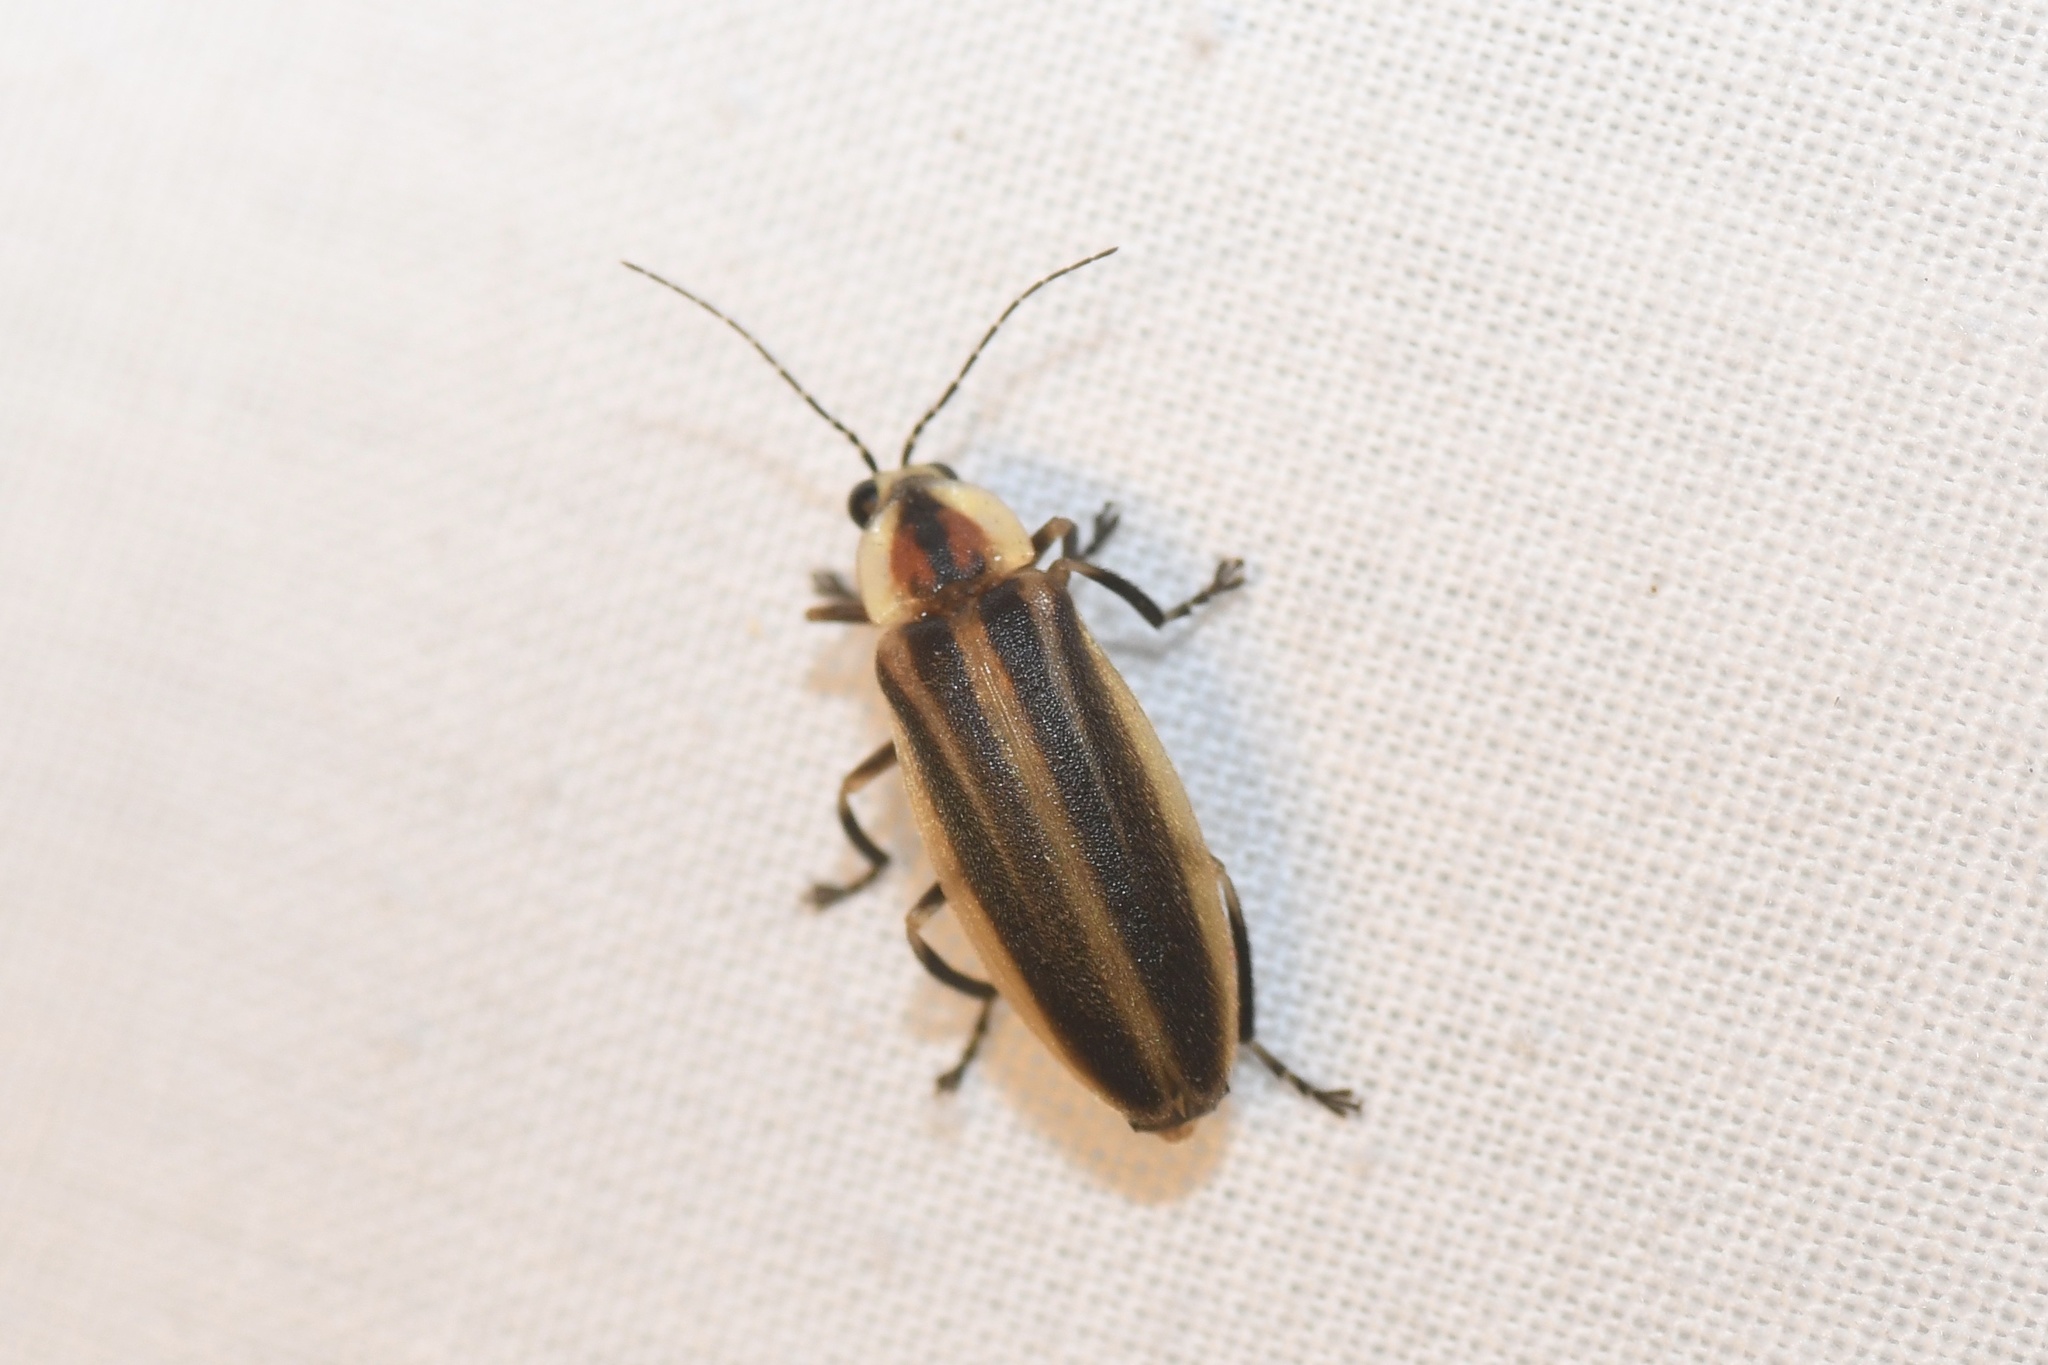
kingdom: Animalia
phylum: Arthropoda
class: Insecta
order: Coleoptera
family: Lampyridae
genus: Photuris
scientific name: Photuris
